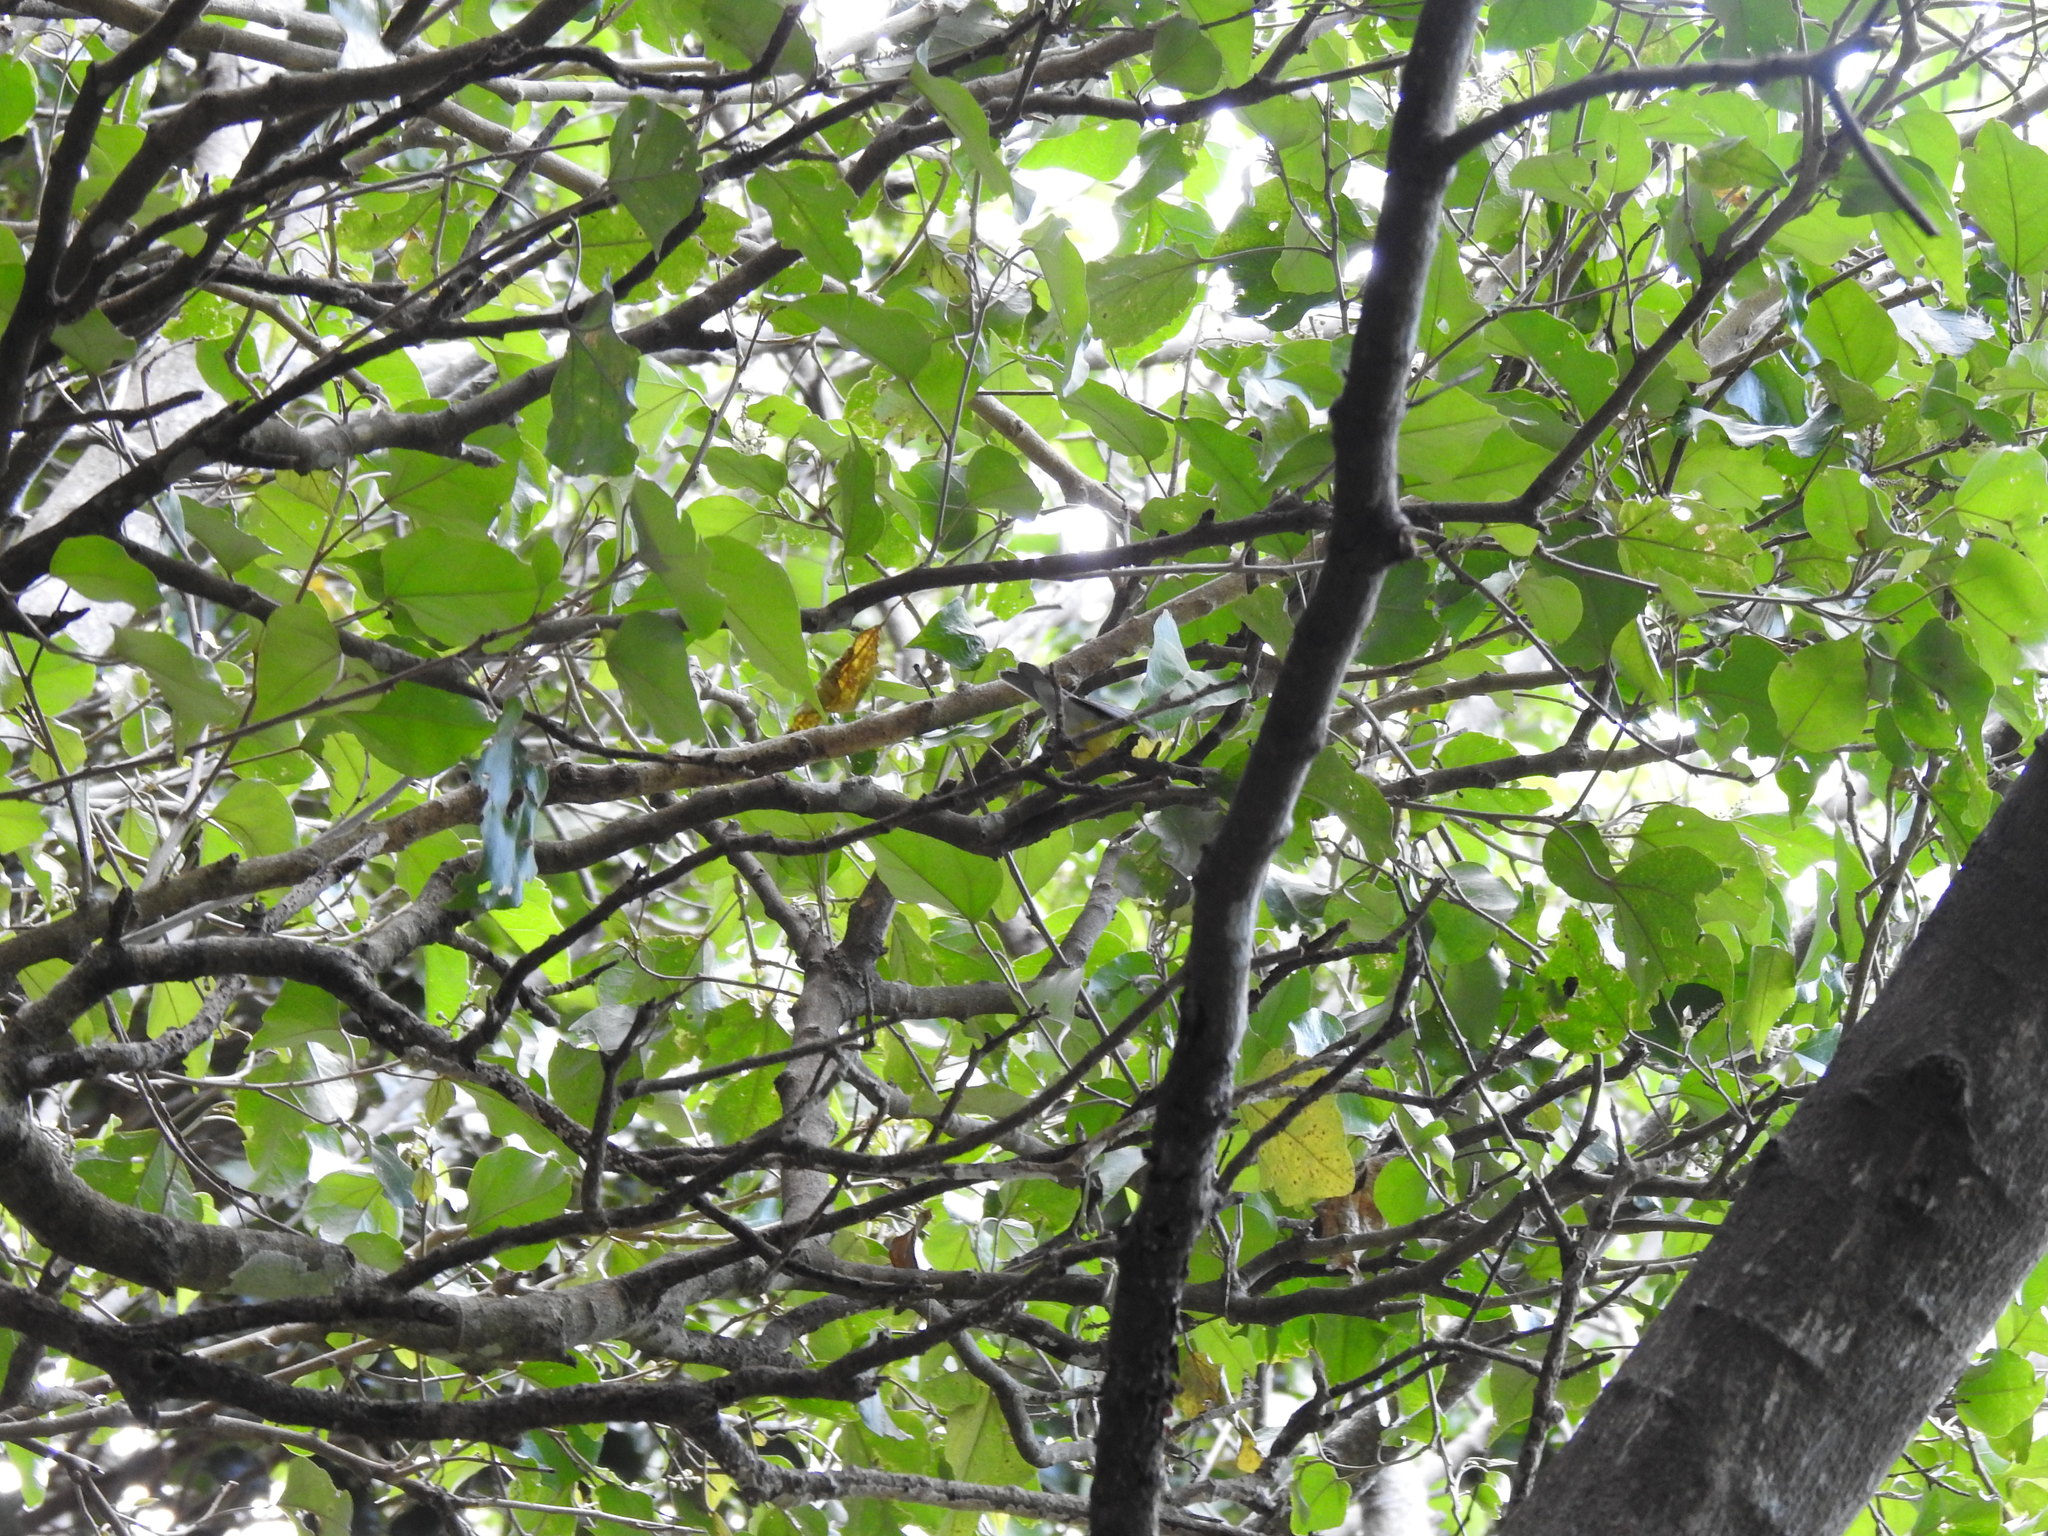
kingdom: Animalia
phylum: Chordata
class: Aves
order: Passeriformes
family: Parulidae
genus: Cardellina
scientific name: Cardellina canadensis
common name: Canada warbler
